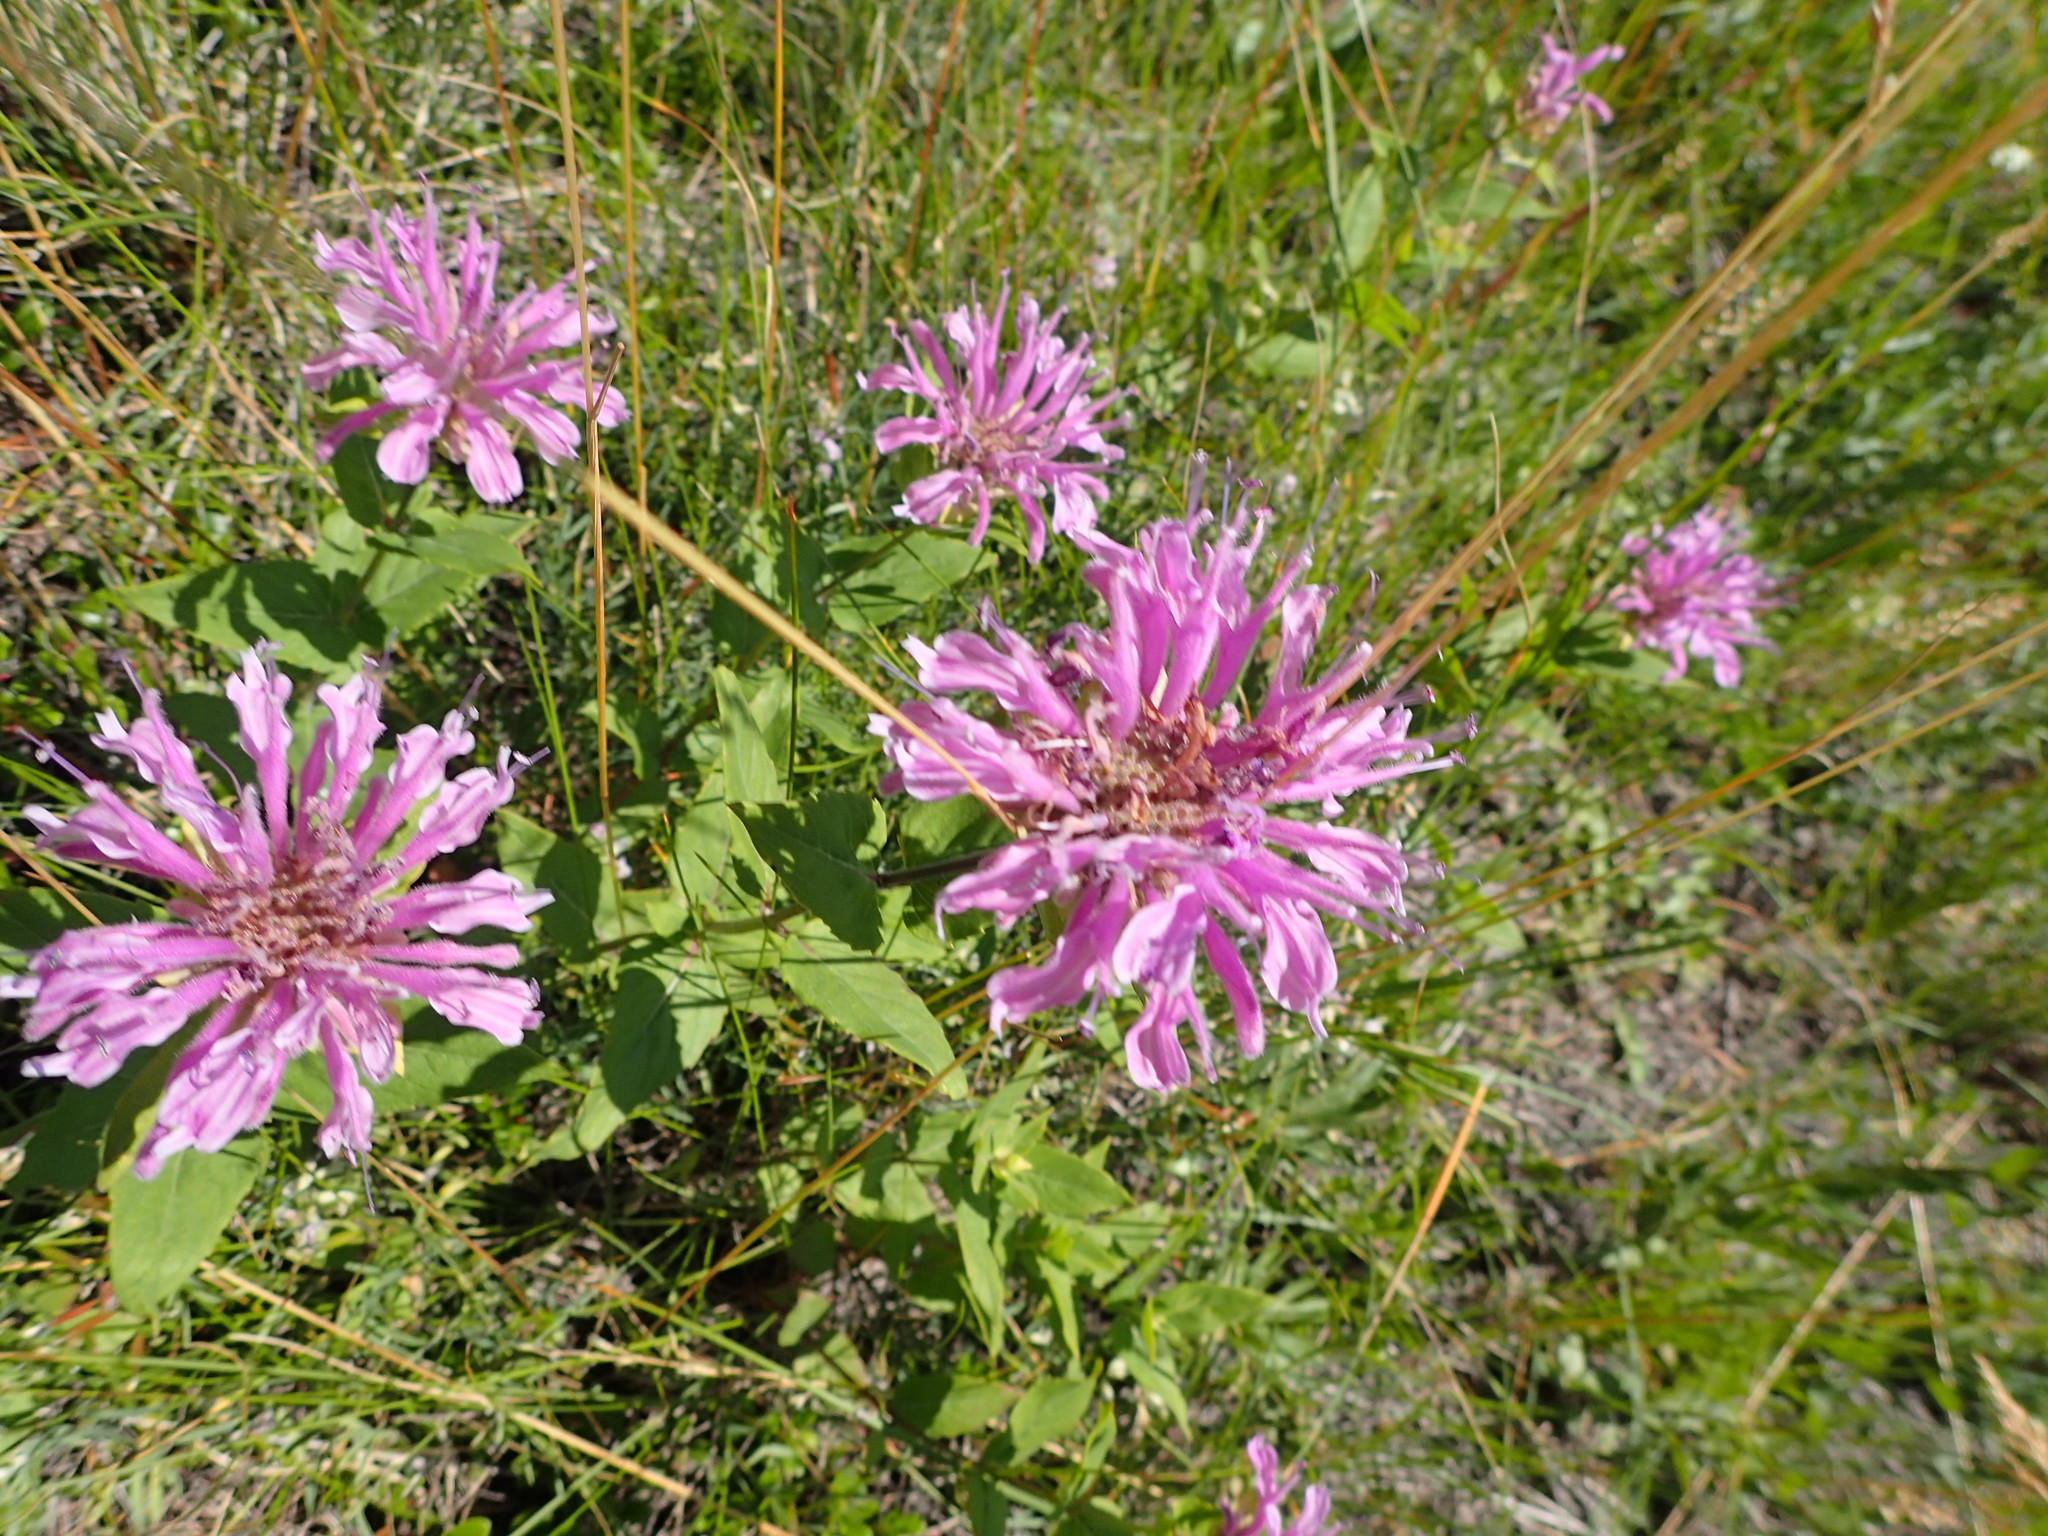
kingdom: Plantae
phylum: Tracheophyta
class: Magnoliopsida
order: Lamiales
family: Lamiaceae
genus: Monarda
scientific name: Monarda fistulosa
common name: Purple beebalm
